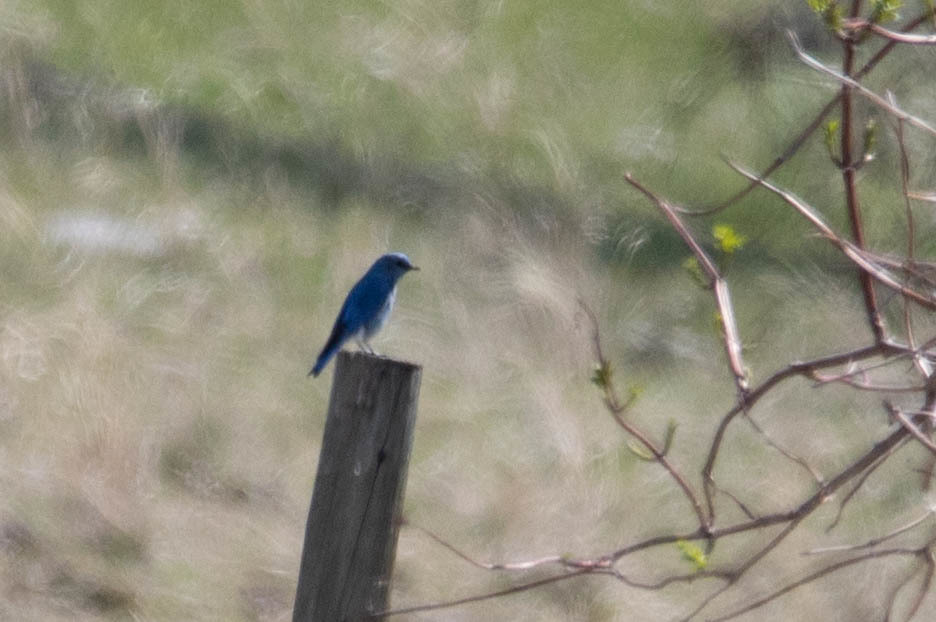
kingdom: Animalia
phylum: Chordata
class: Aves
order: Passeriformes
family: Turdidae
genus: Sialia
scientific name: Sialia currucoides
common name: Mountain bluebird
